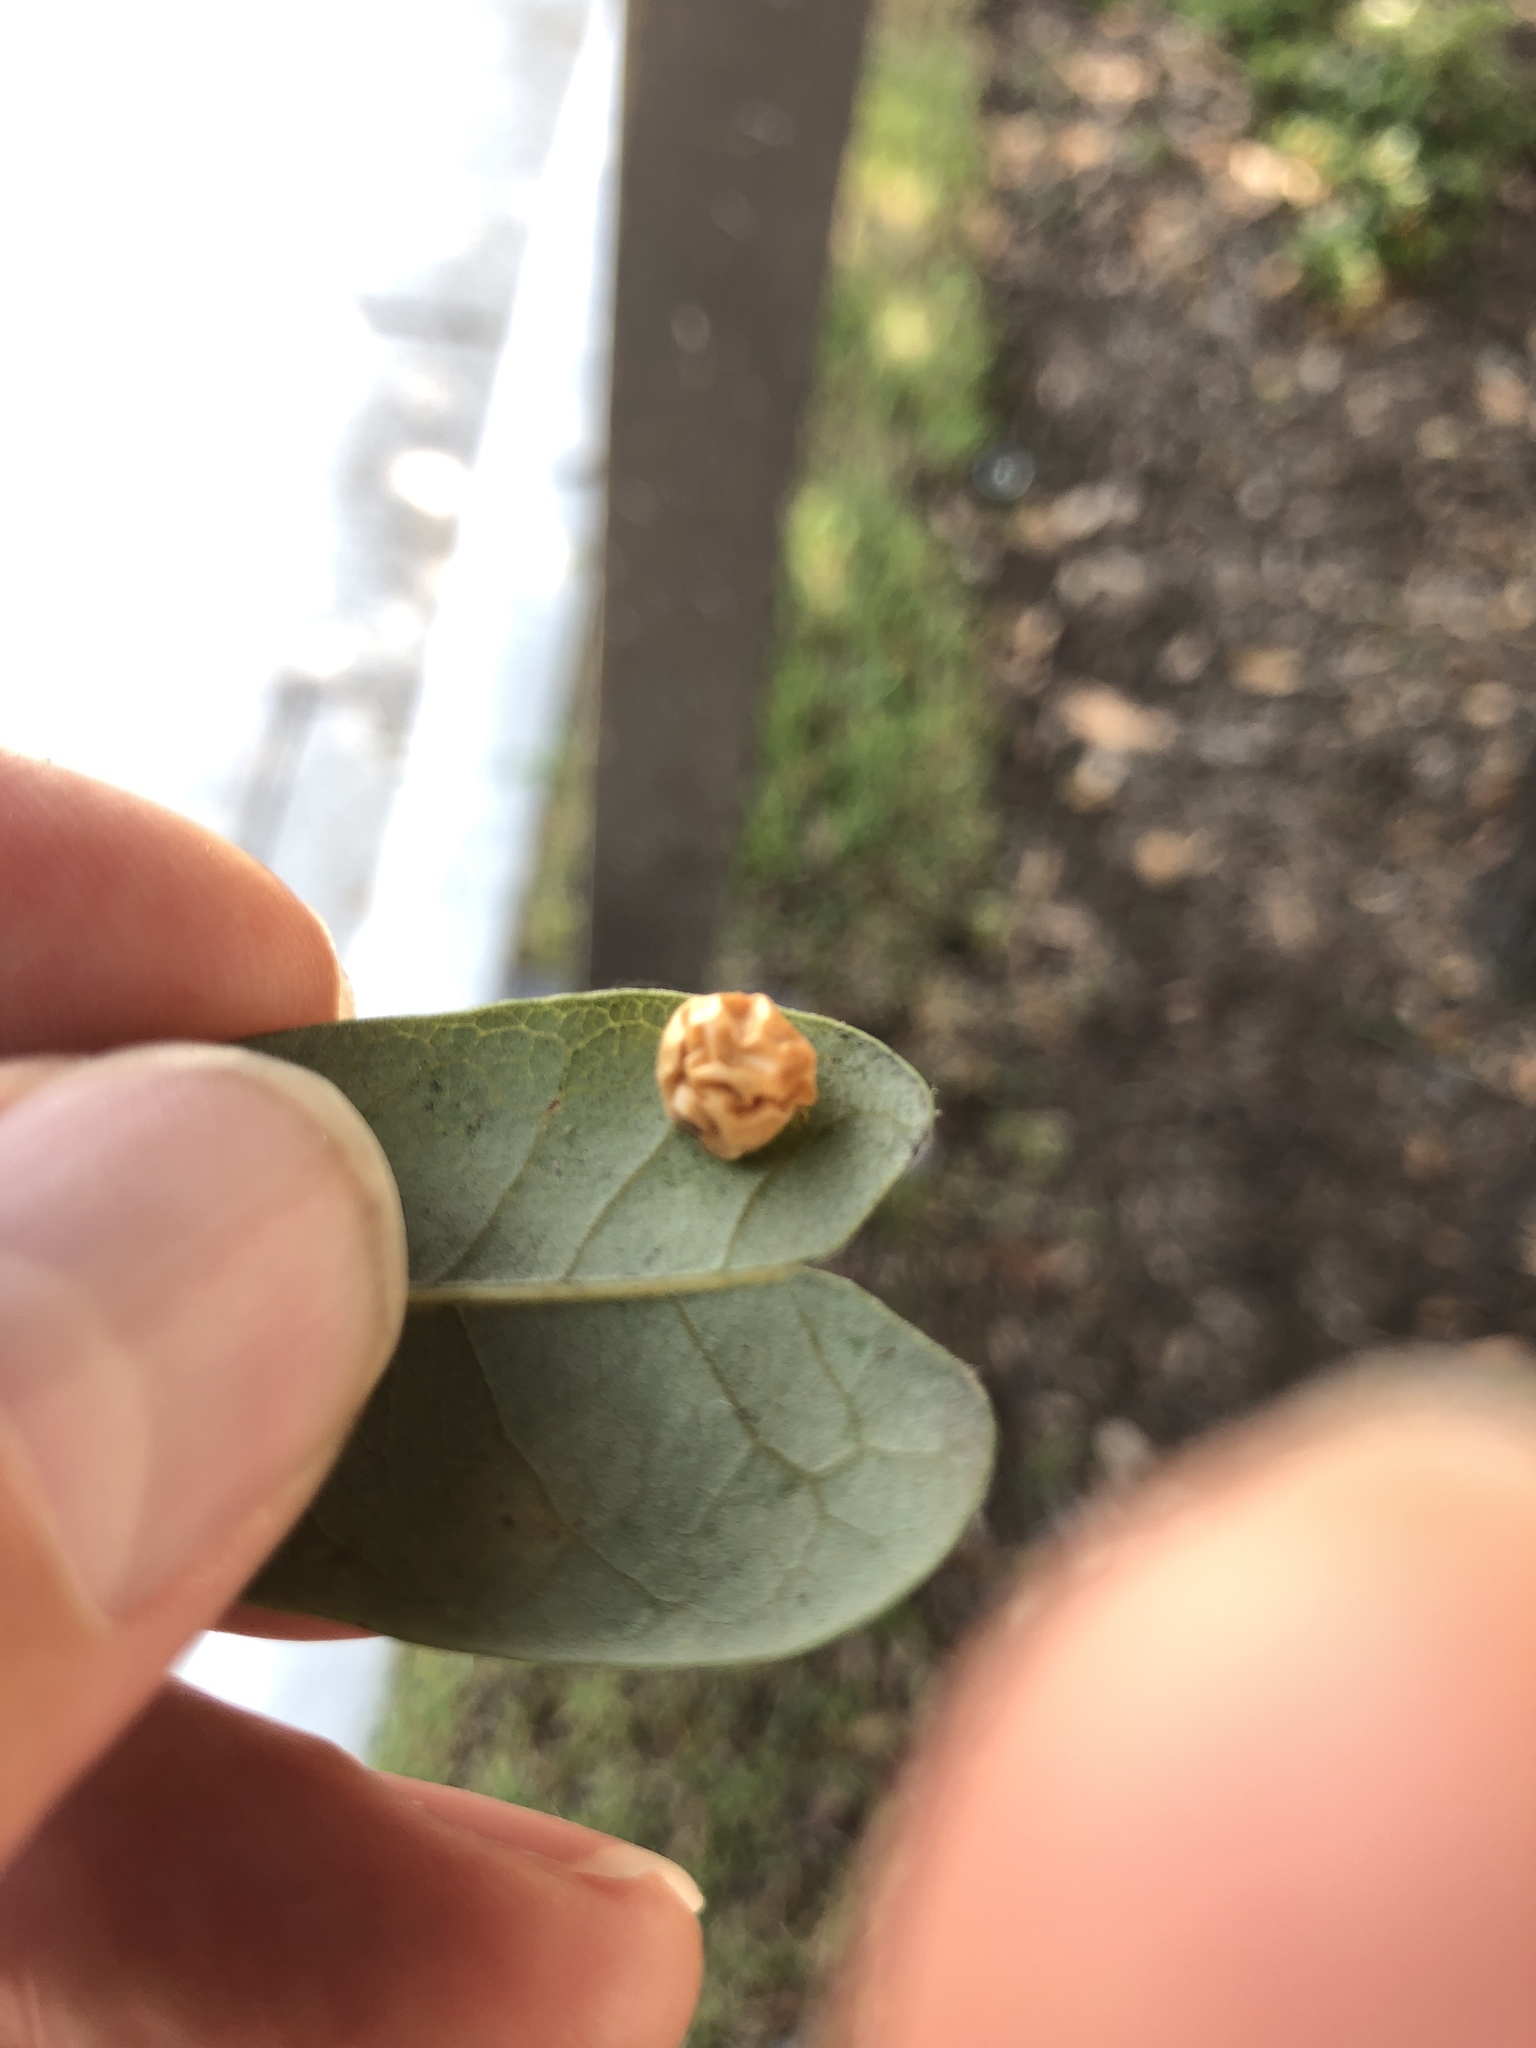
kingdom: Animalia
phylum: Arthropoda
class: Insecta
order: Hymenoptera
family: Cynipidae
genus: Belonocnema
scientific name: Belonocnema kinseyi
